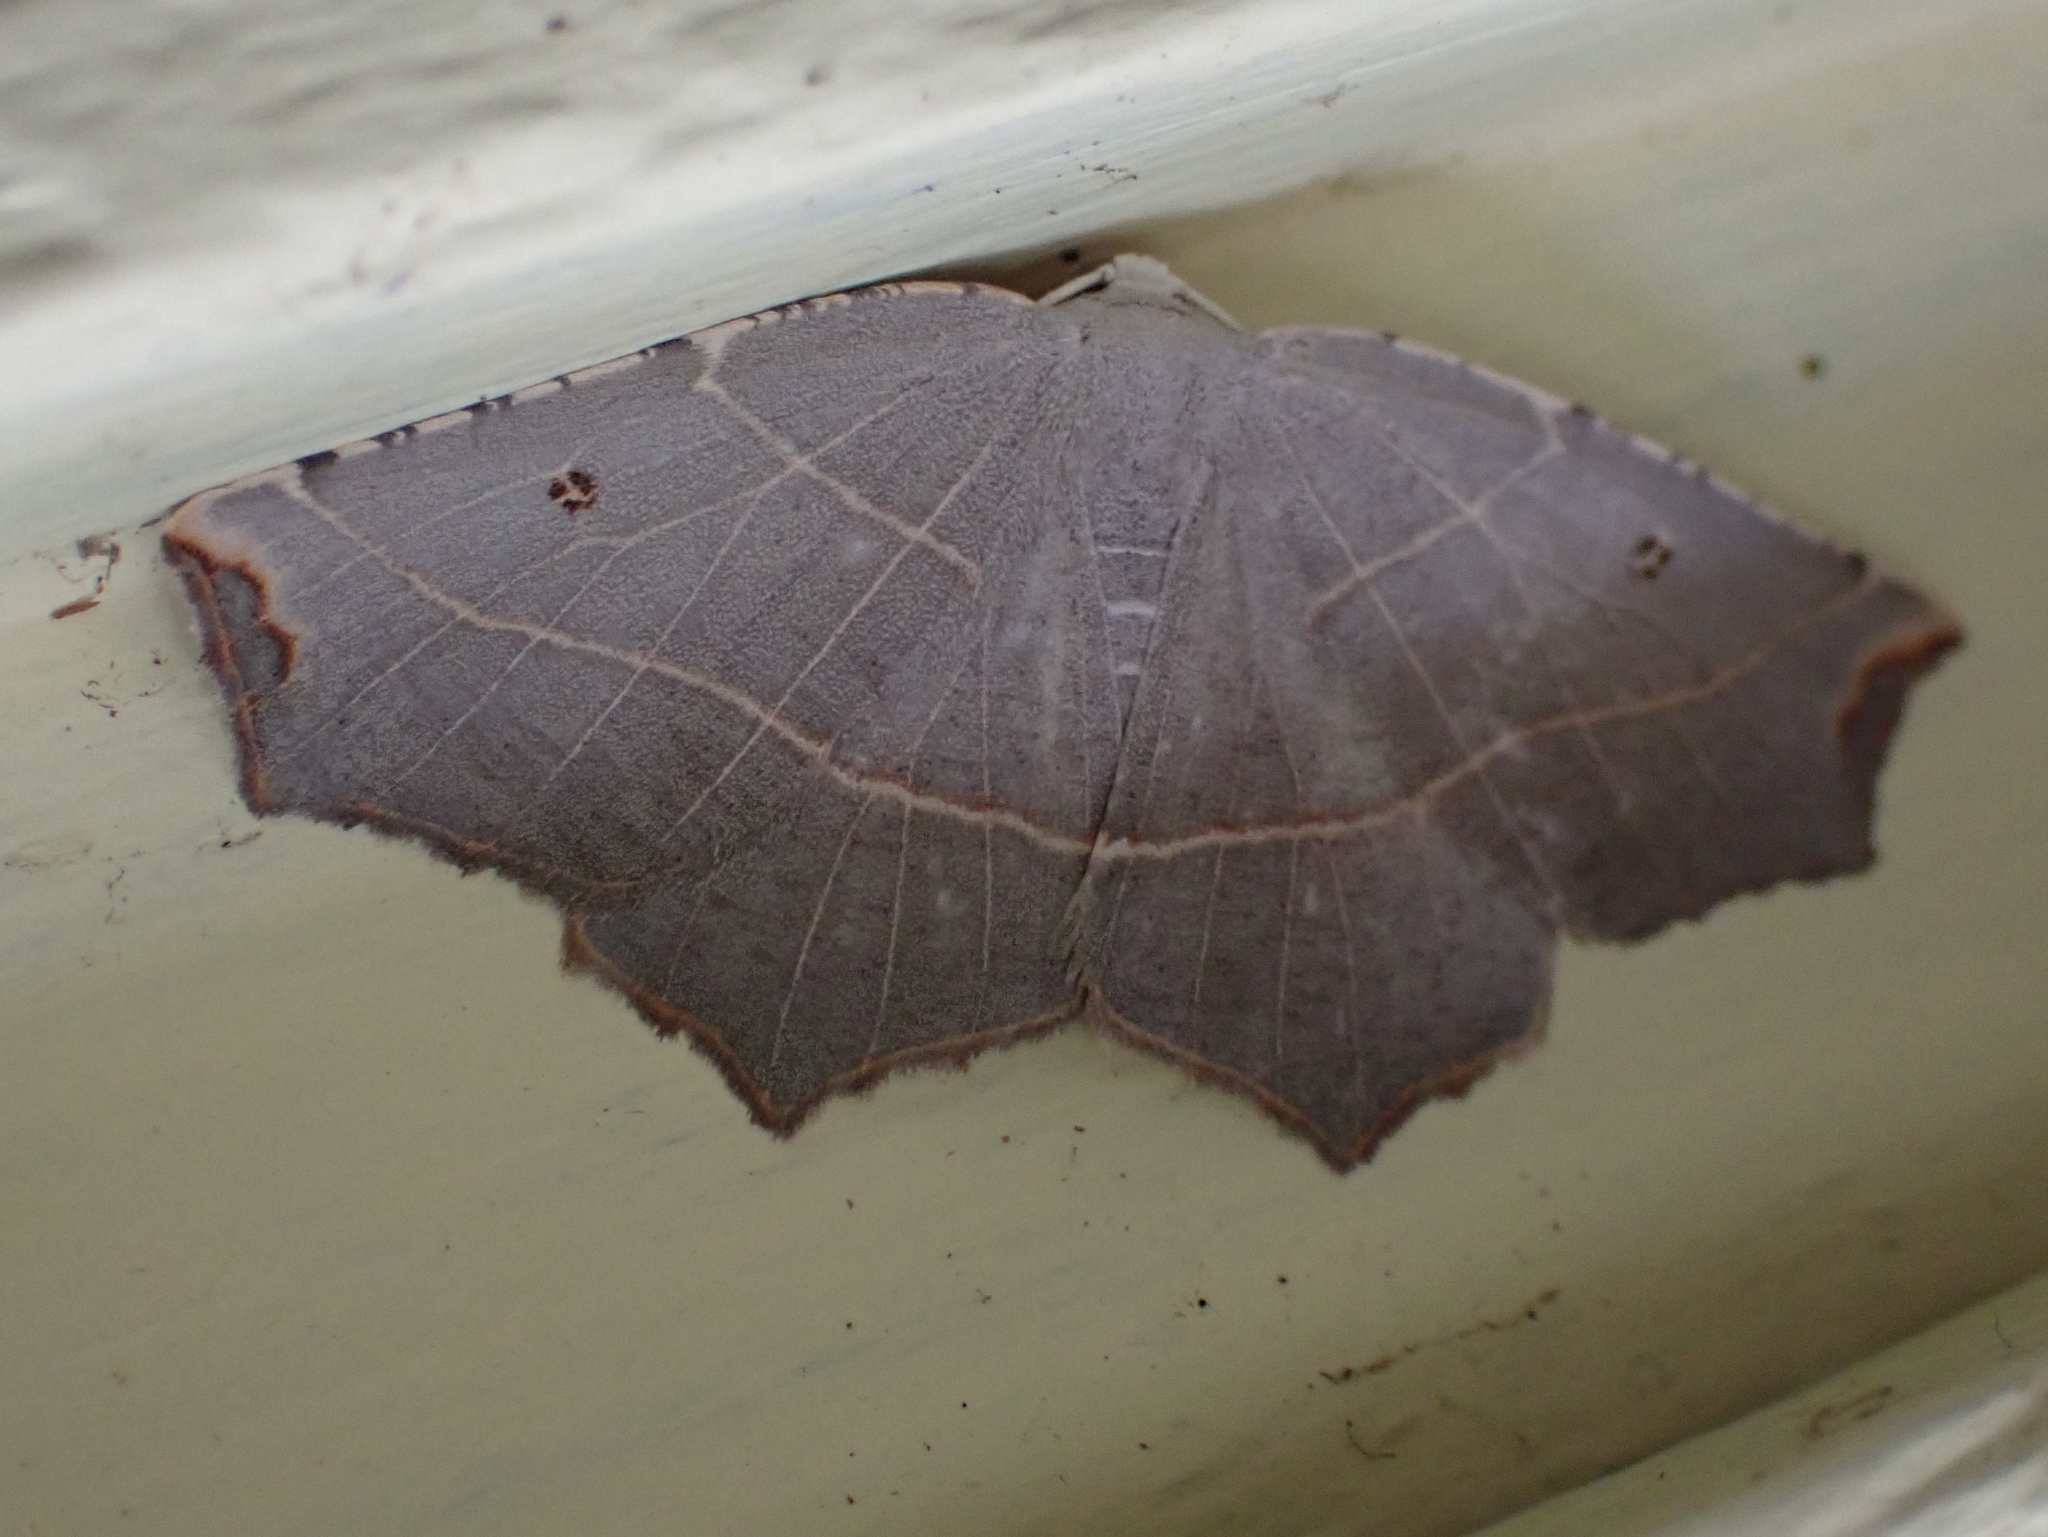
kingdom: Animalia
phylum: Arthropoda
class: Insecta
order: Lepidoptera
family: Geometridae
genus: Metanema
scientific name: Metanema inatomaria
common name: Pale metanema
